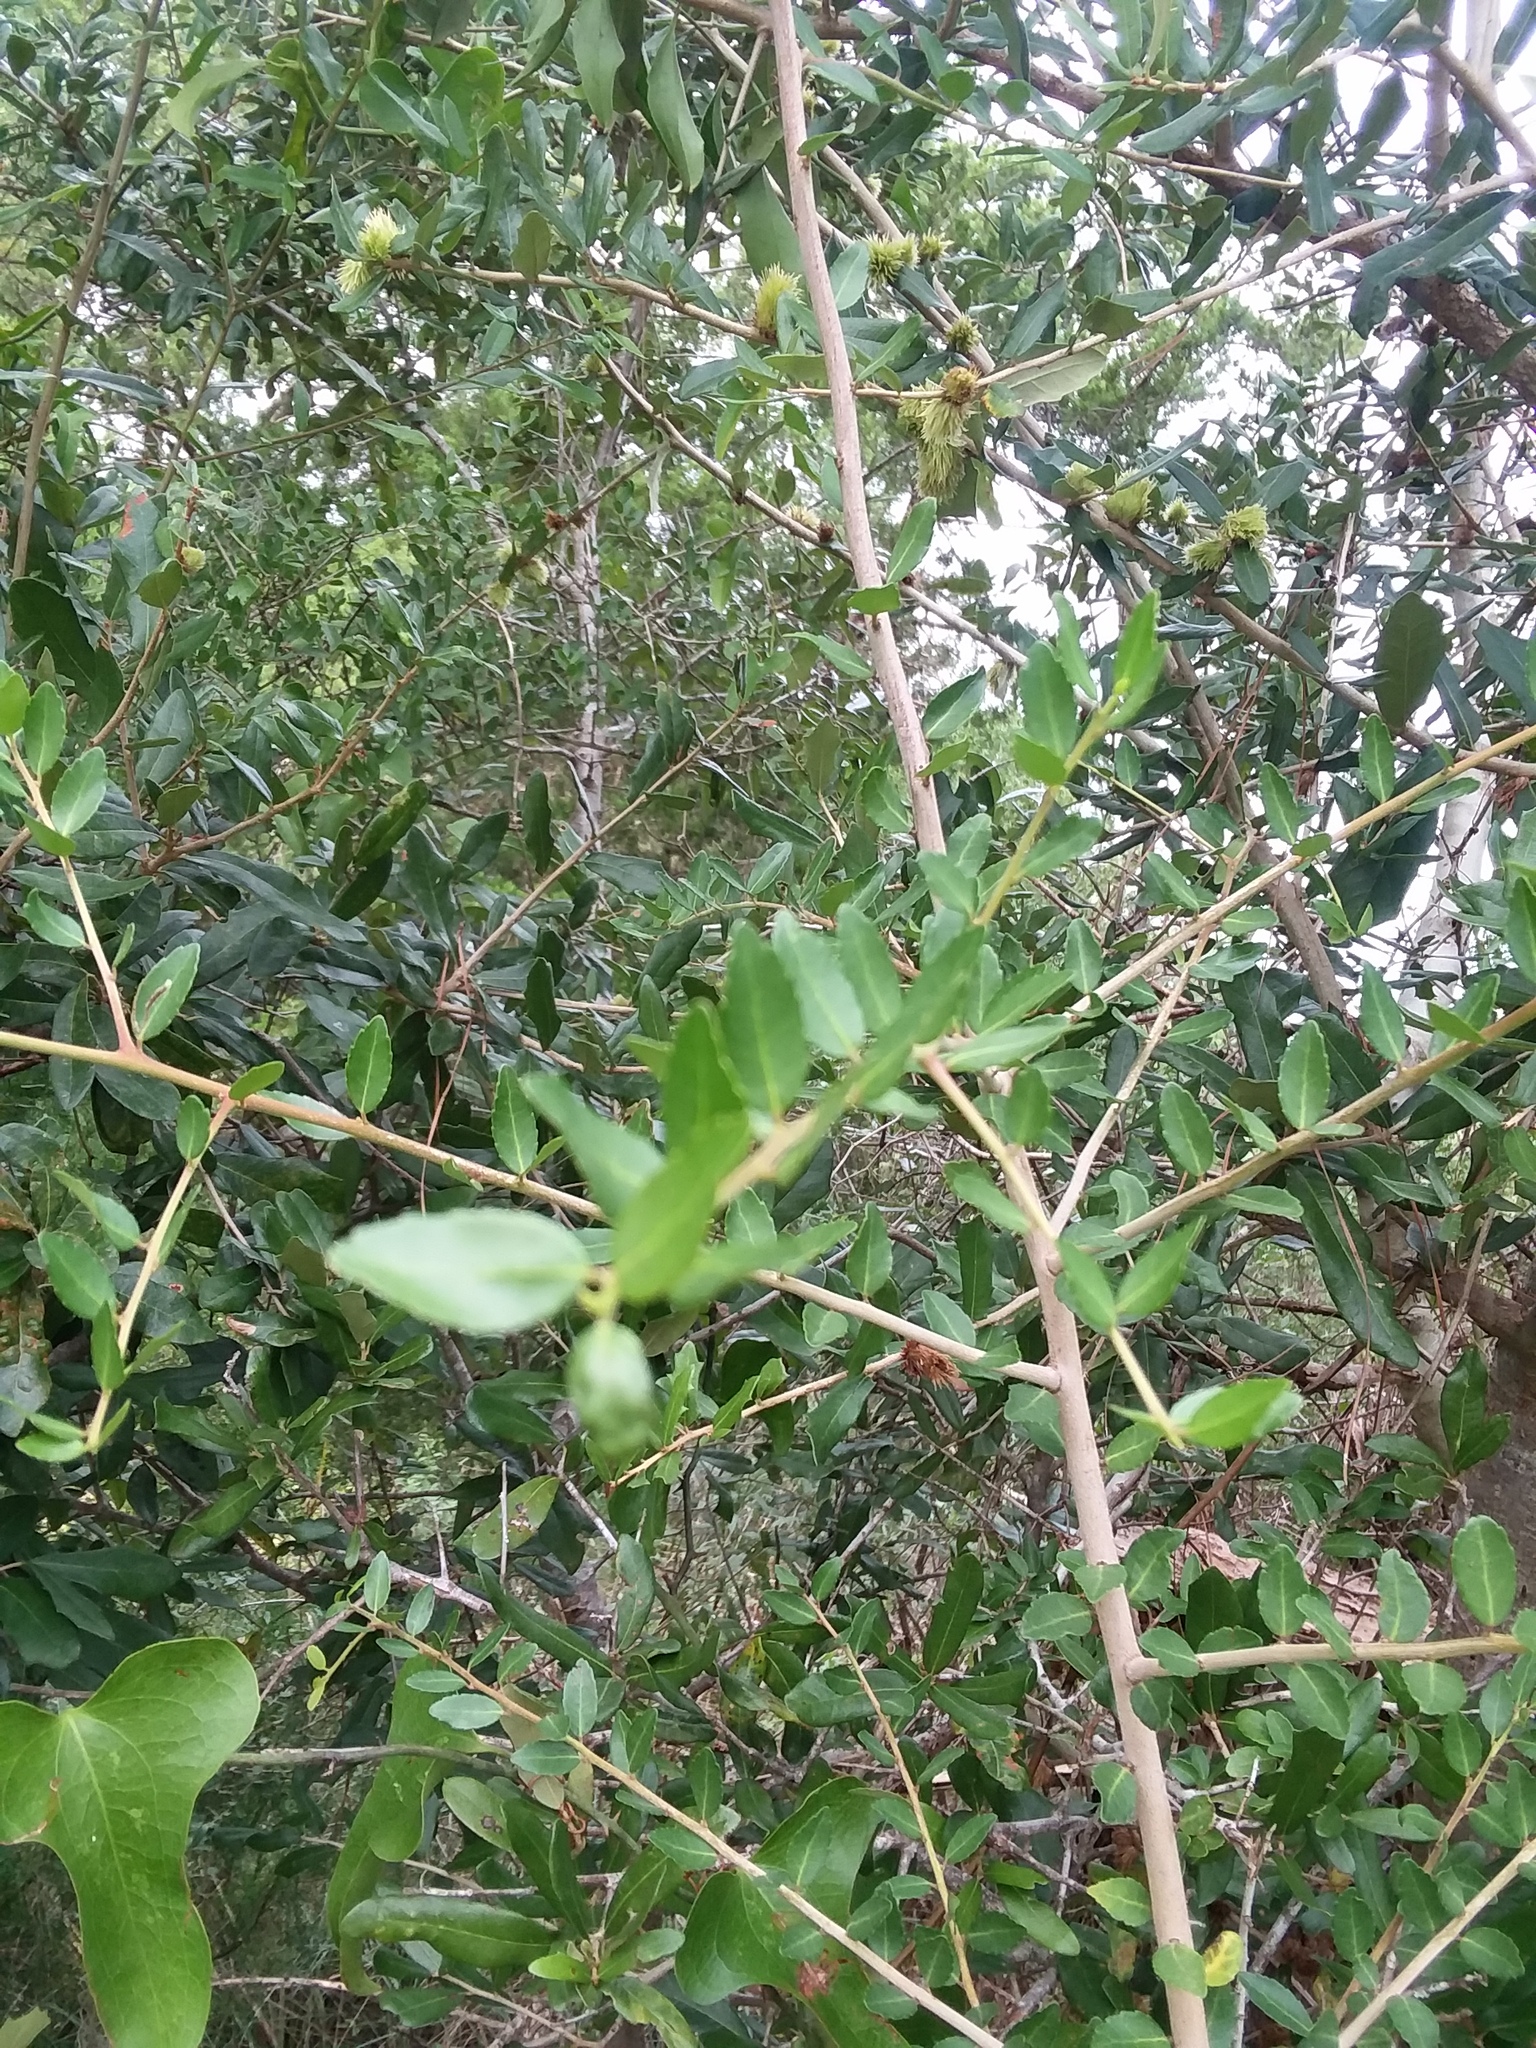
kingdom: Plantae
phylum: Tracheophyta
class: Magnoliopsida
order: Aquifoliales
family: Aquifoliaceae
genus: Ilex
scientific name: Ilex vomitoria
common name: Yaupon holly
